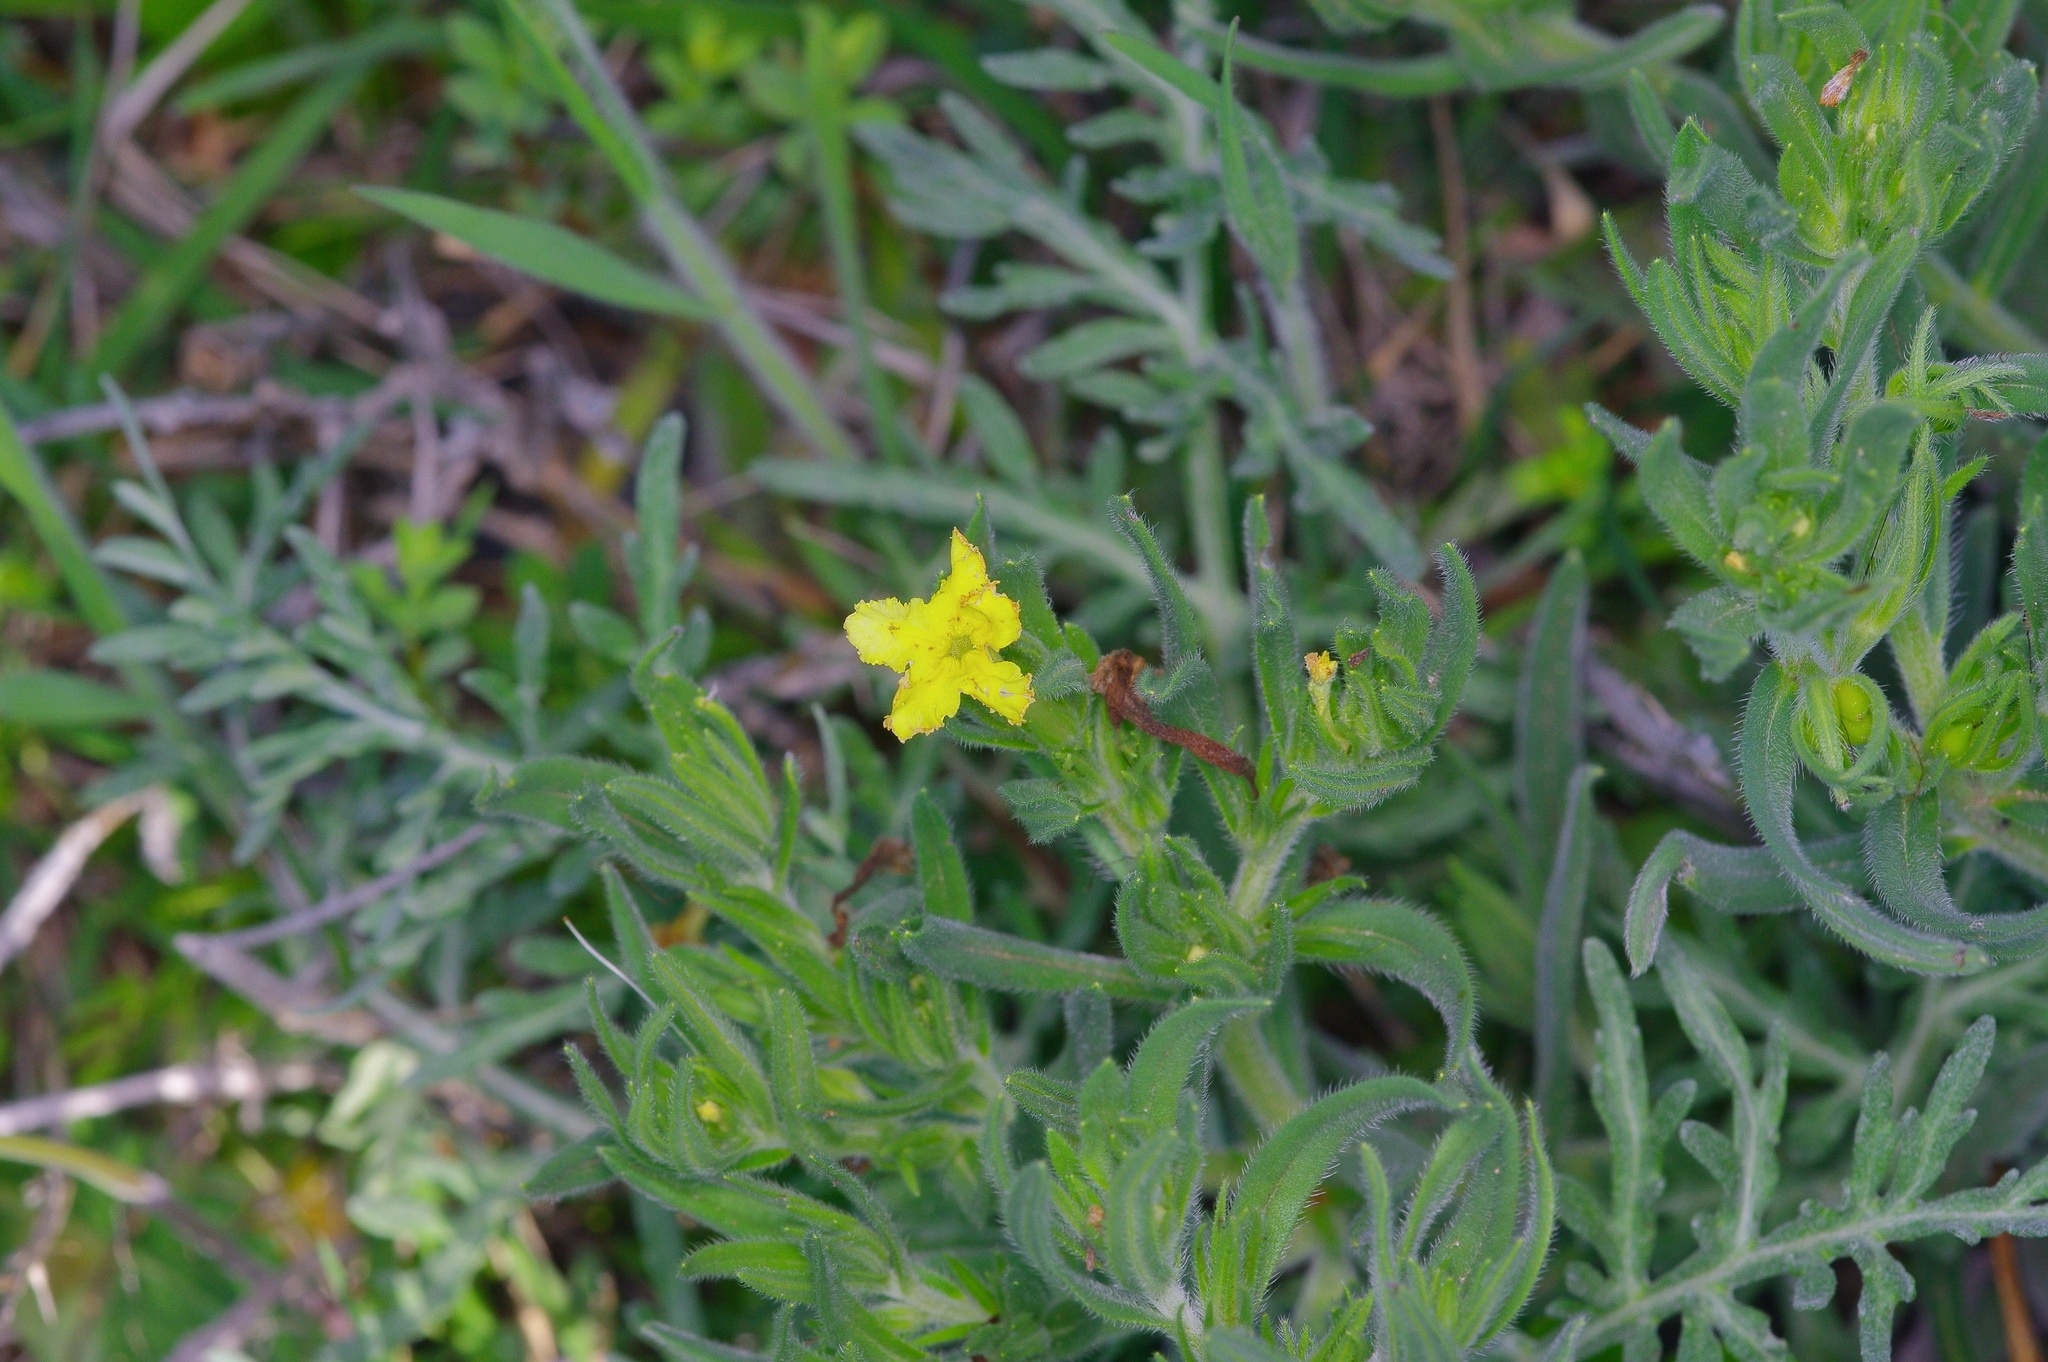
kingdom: Plantae
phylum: Tracheophyta
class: Magnoliopsida
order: Boraginales
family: Boraginaceae
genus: Lithospermum
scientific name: Lithospermum incisum
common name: Fringed gromwell
